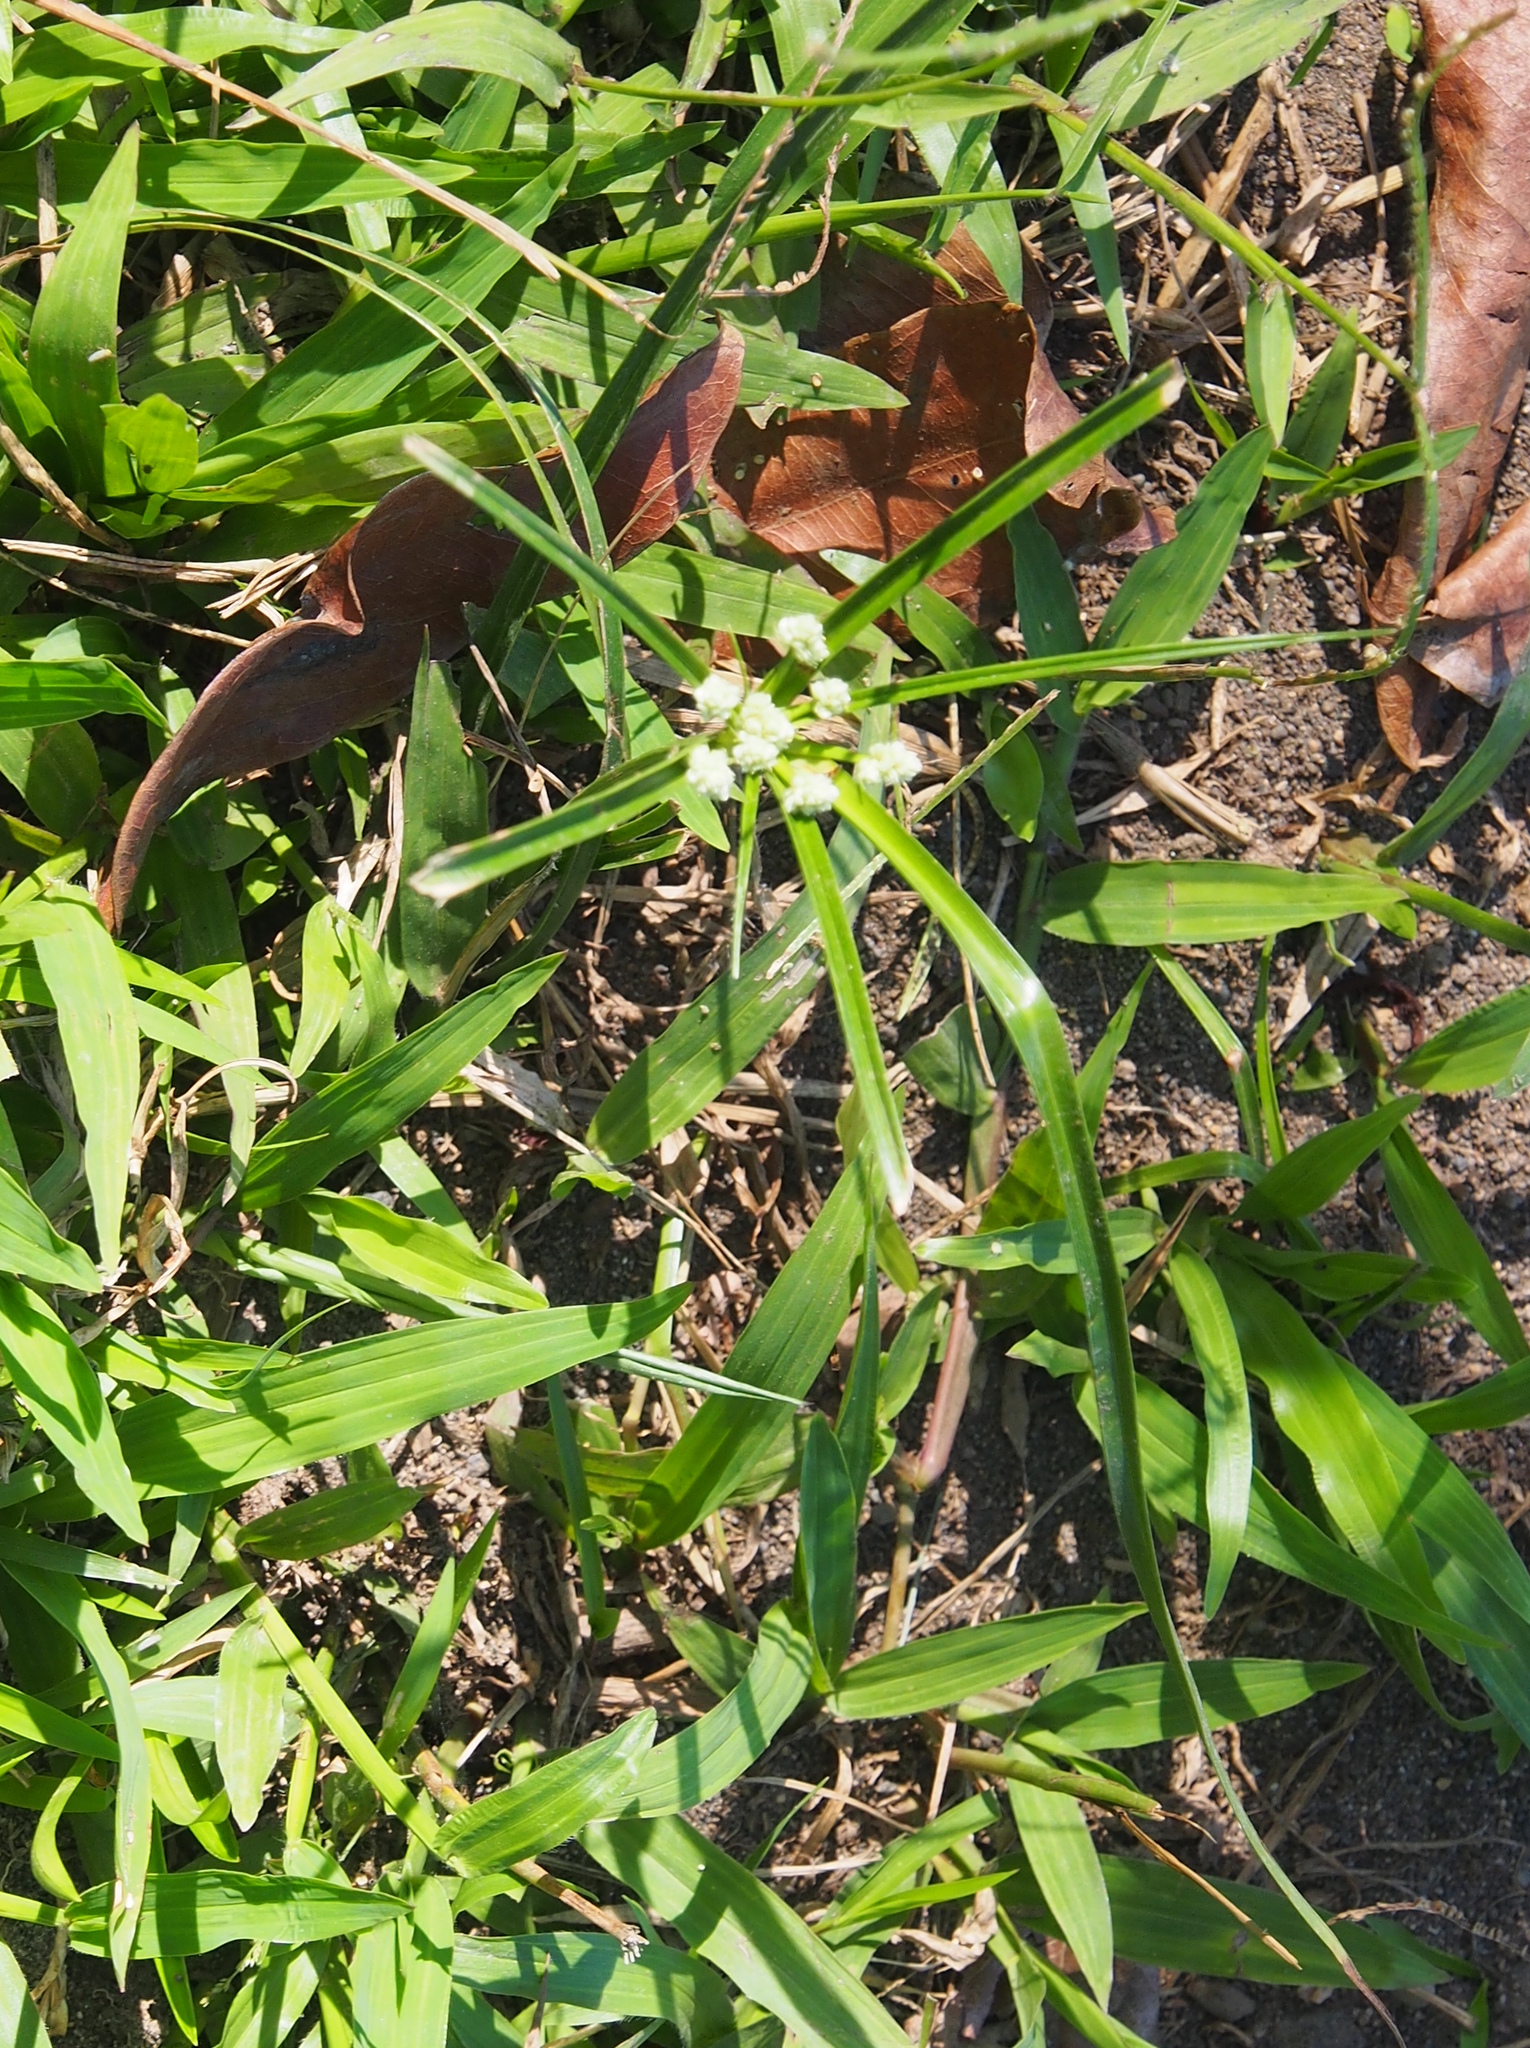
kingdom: Plantae
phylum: Tracheophyta
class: Liliopsida
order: Poales
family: Cyperaceae
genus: Cyperus
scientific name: Cyperus luzulae
